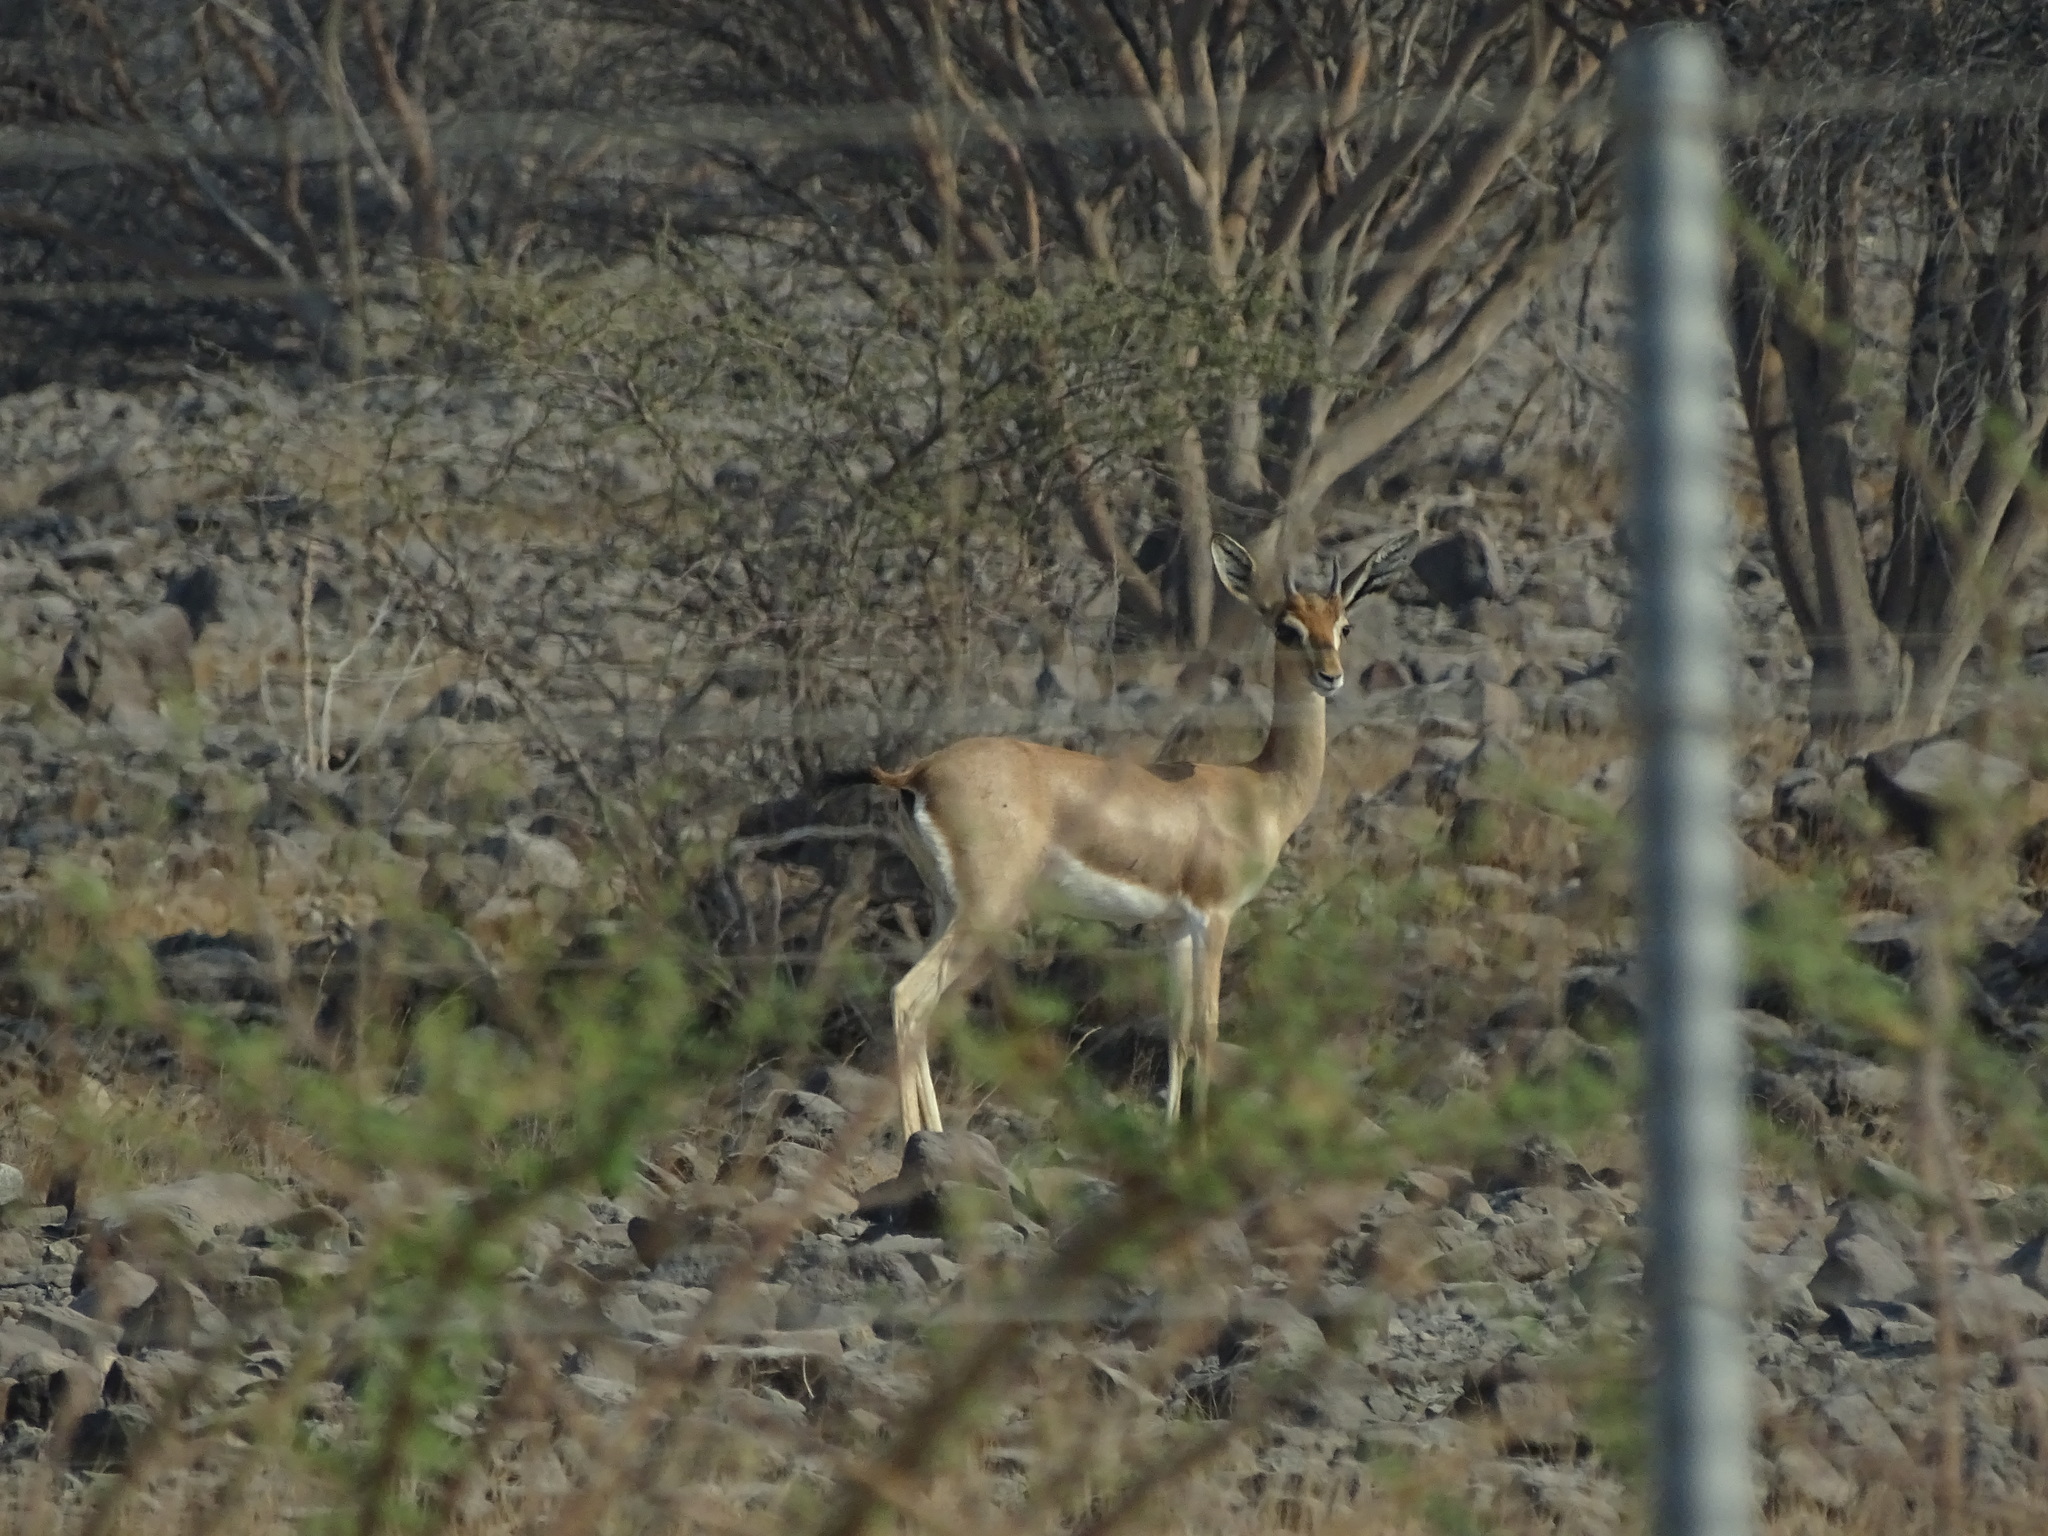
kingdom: Animalia
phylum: Chordata
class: Mammalia
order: Artiodactyla
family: Bovidae
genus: Gazella
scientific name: Gazella arabica
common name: Arabian gazelle
